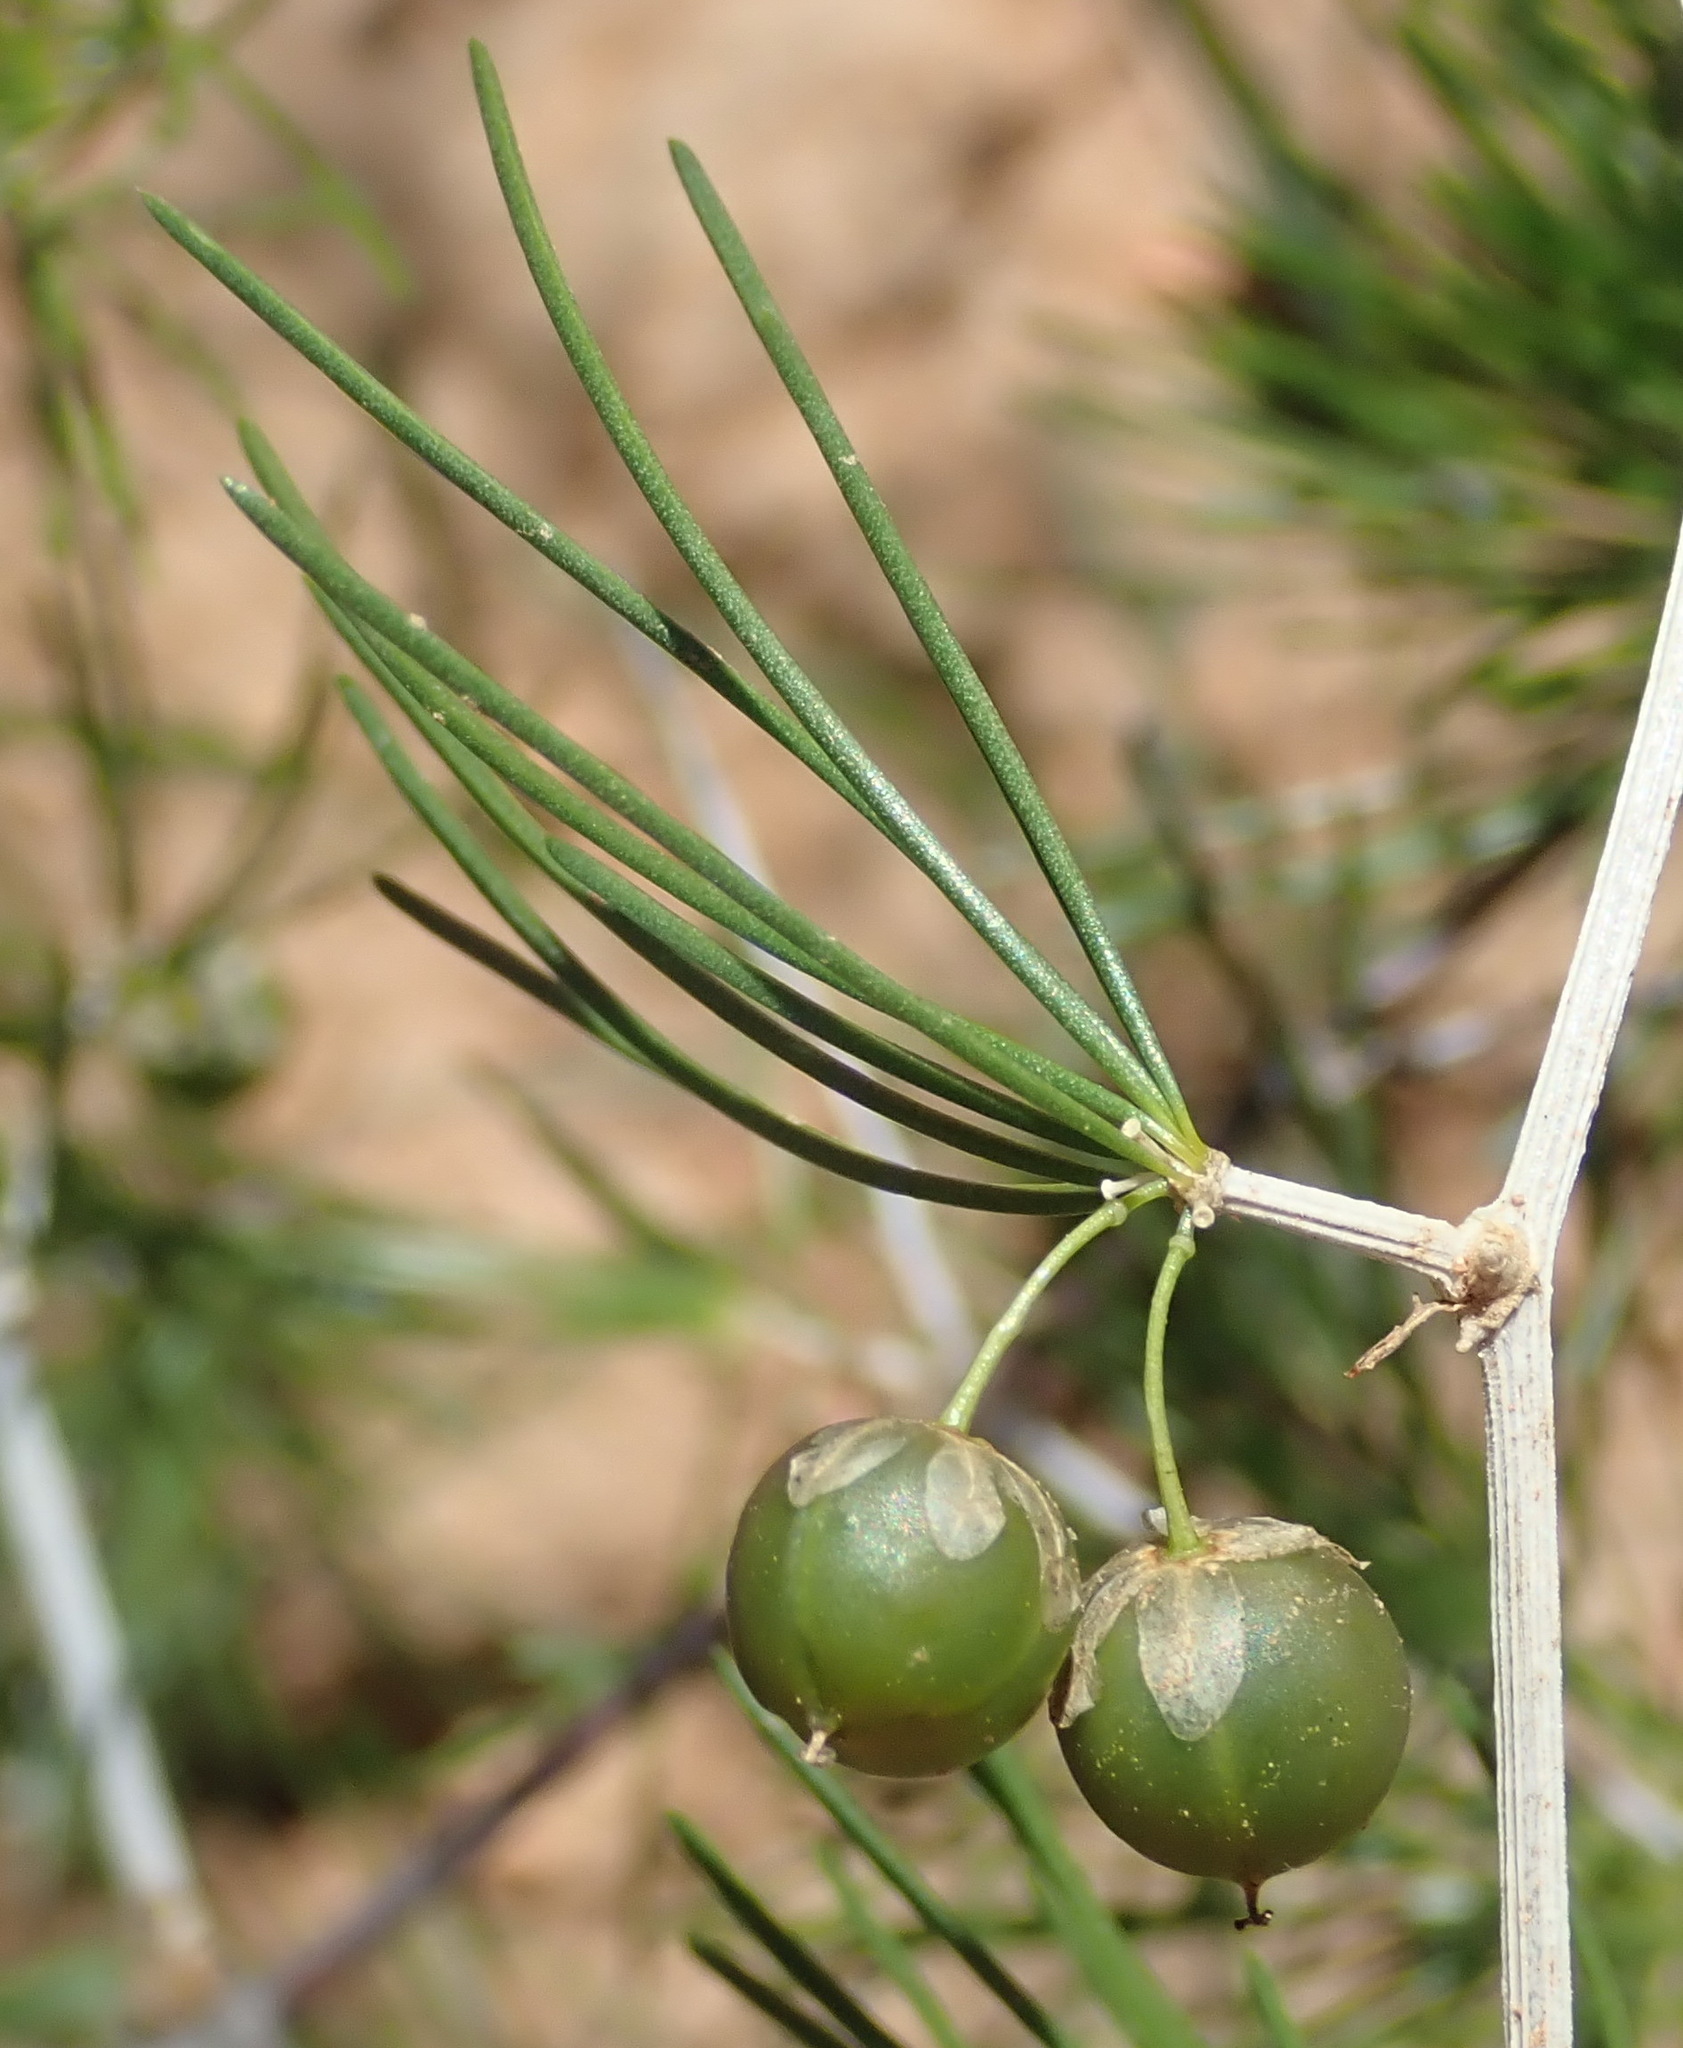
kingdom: Plantae
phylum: Tracheophyta
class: Liliopsida
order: Asparagales
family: Asparagaceae
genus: Asparagus
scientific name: Asparagus retrofractus
